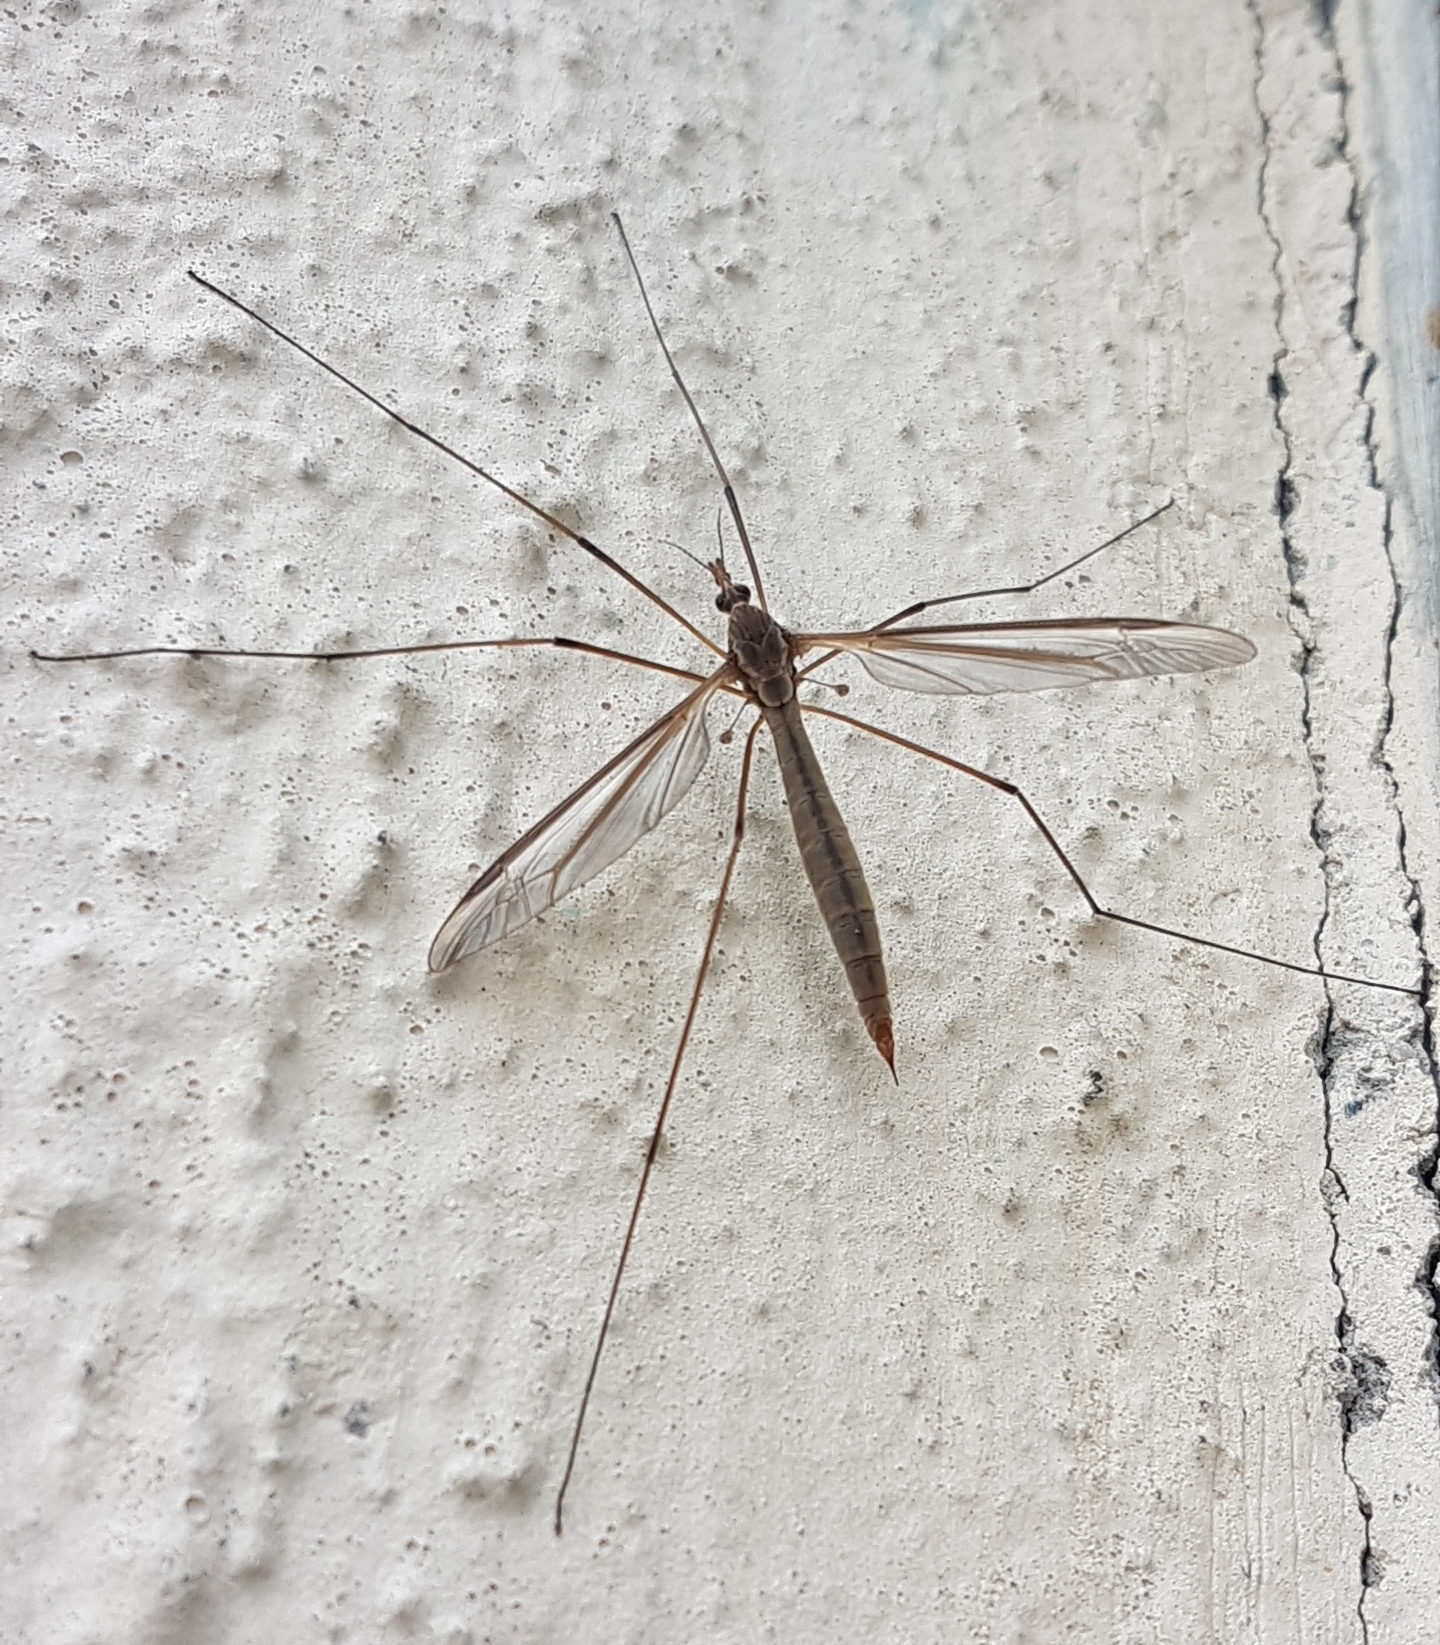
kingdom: Animalia
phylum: Arthropoda
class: Insecta
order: Diptera
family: Tipulidae
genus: Tipula
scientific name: Tipula paludosa
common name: European cranefly
